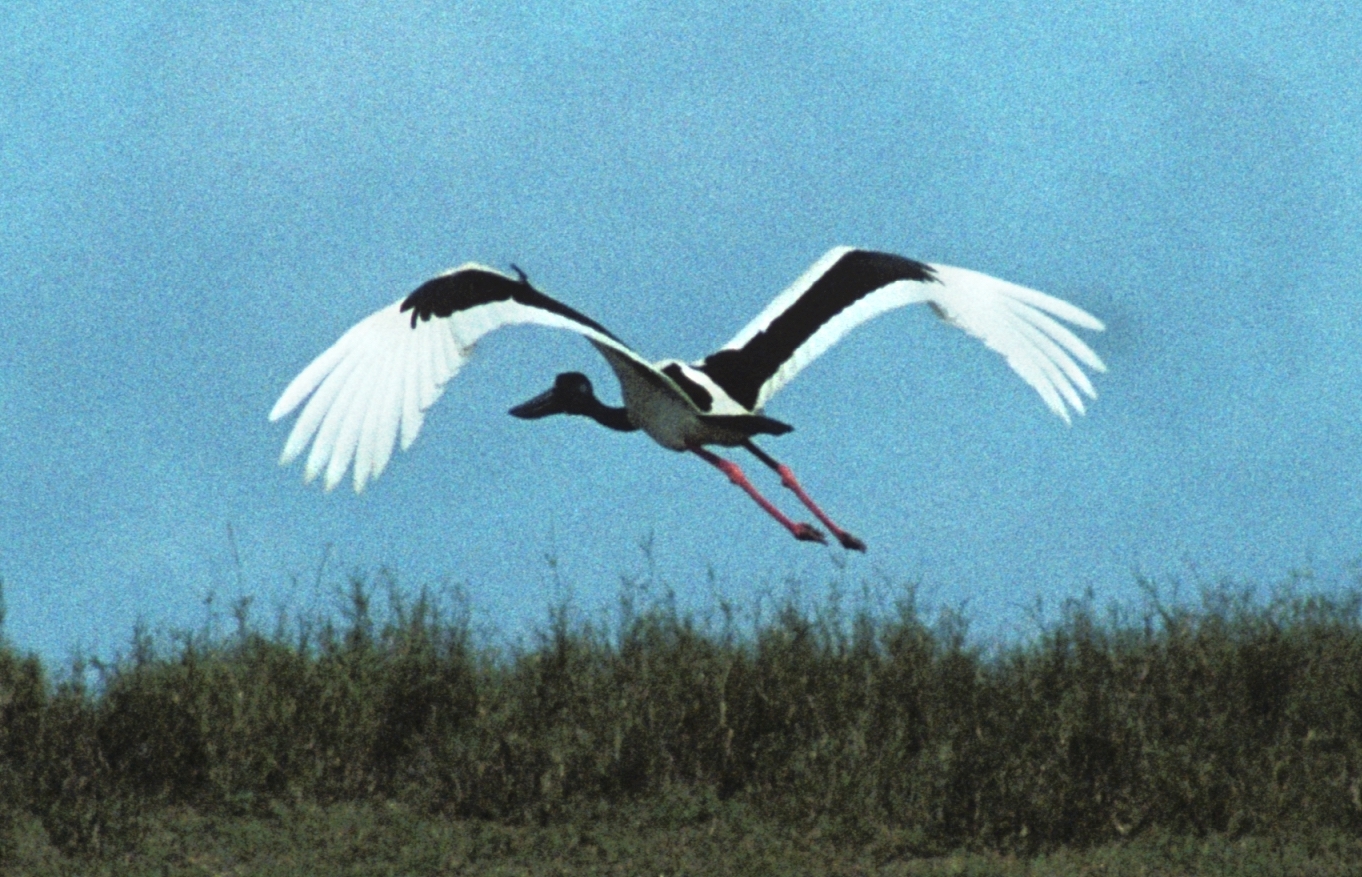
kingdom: Animalia
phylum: Chordata
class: Aves
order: Ciconiiformes
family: Ciconiidae
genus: Ephippiorhynchus
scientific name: Ephippiorhynchus asiaticus
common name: Black-necked stork
